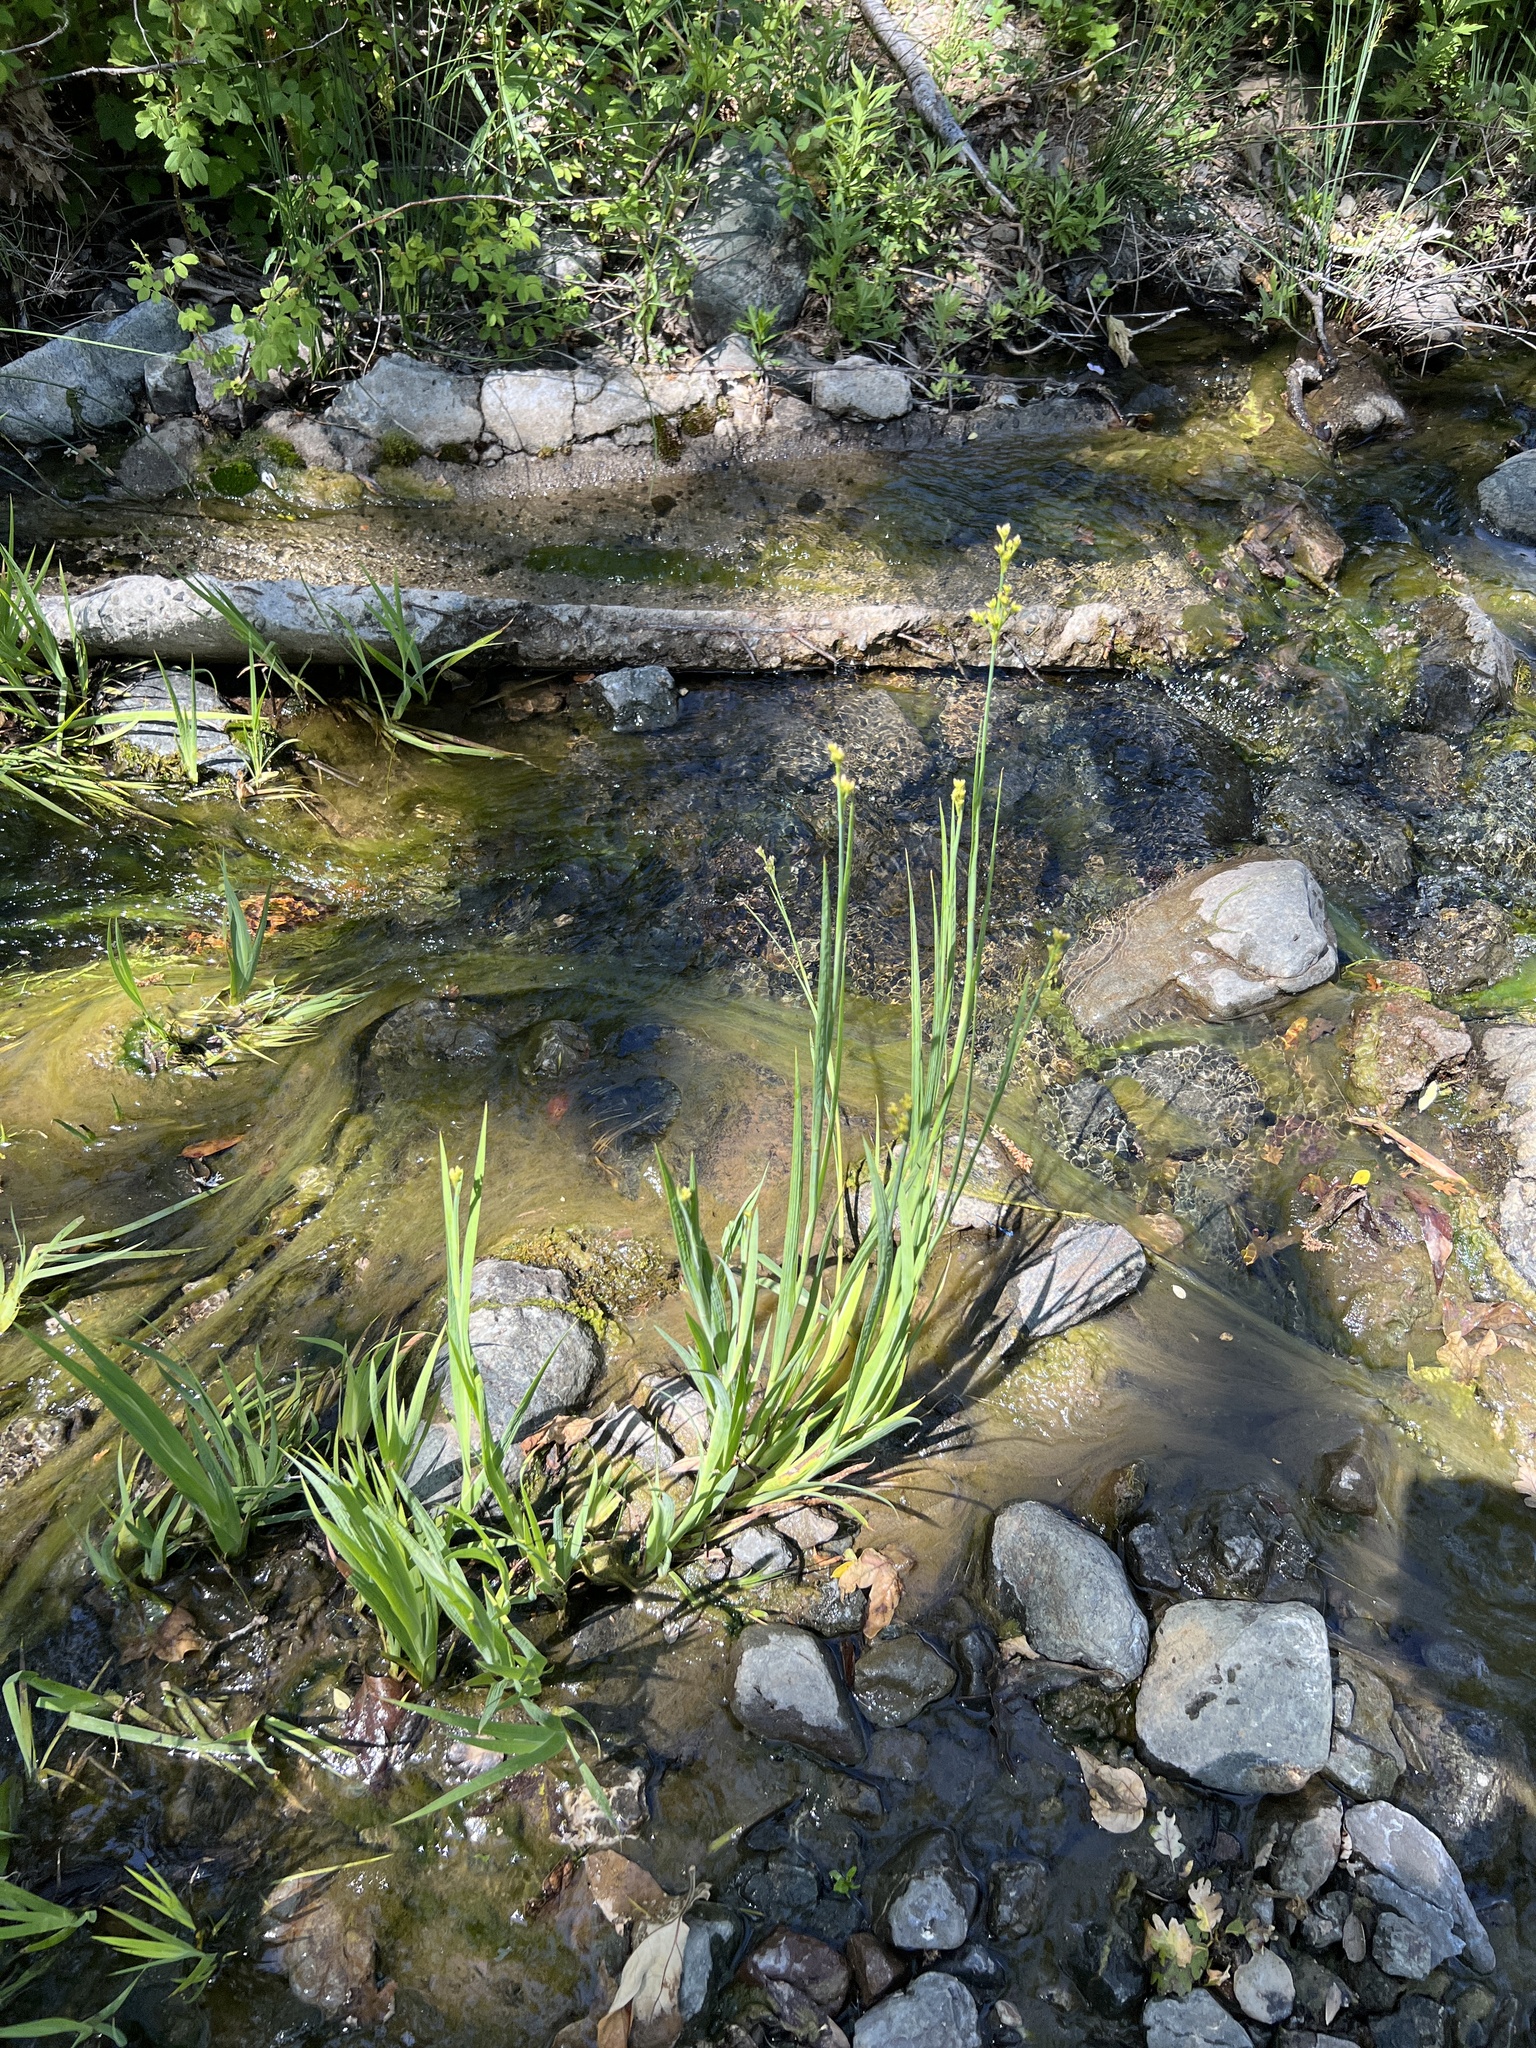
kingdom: Plantae
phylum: Tracheophyta
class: Liliopsida
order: Poales
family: Juncaceae
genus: Juncus
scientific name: Juncus xiphioides
